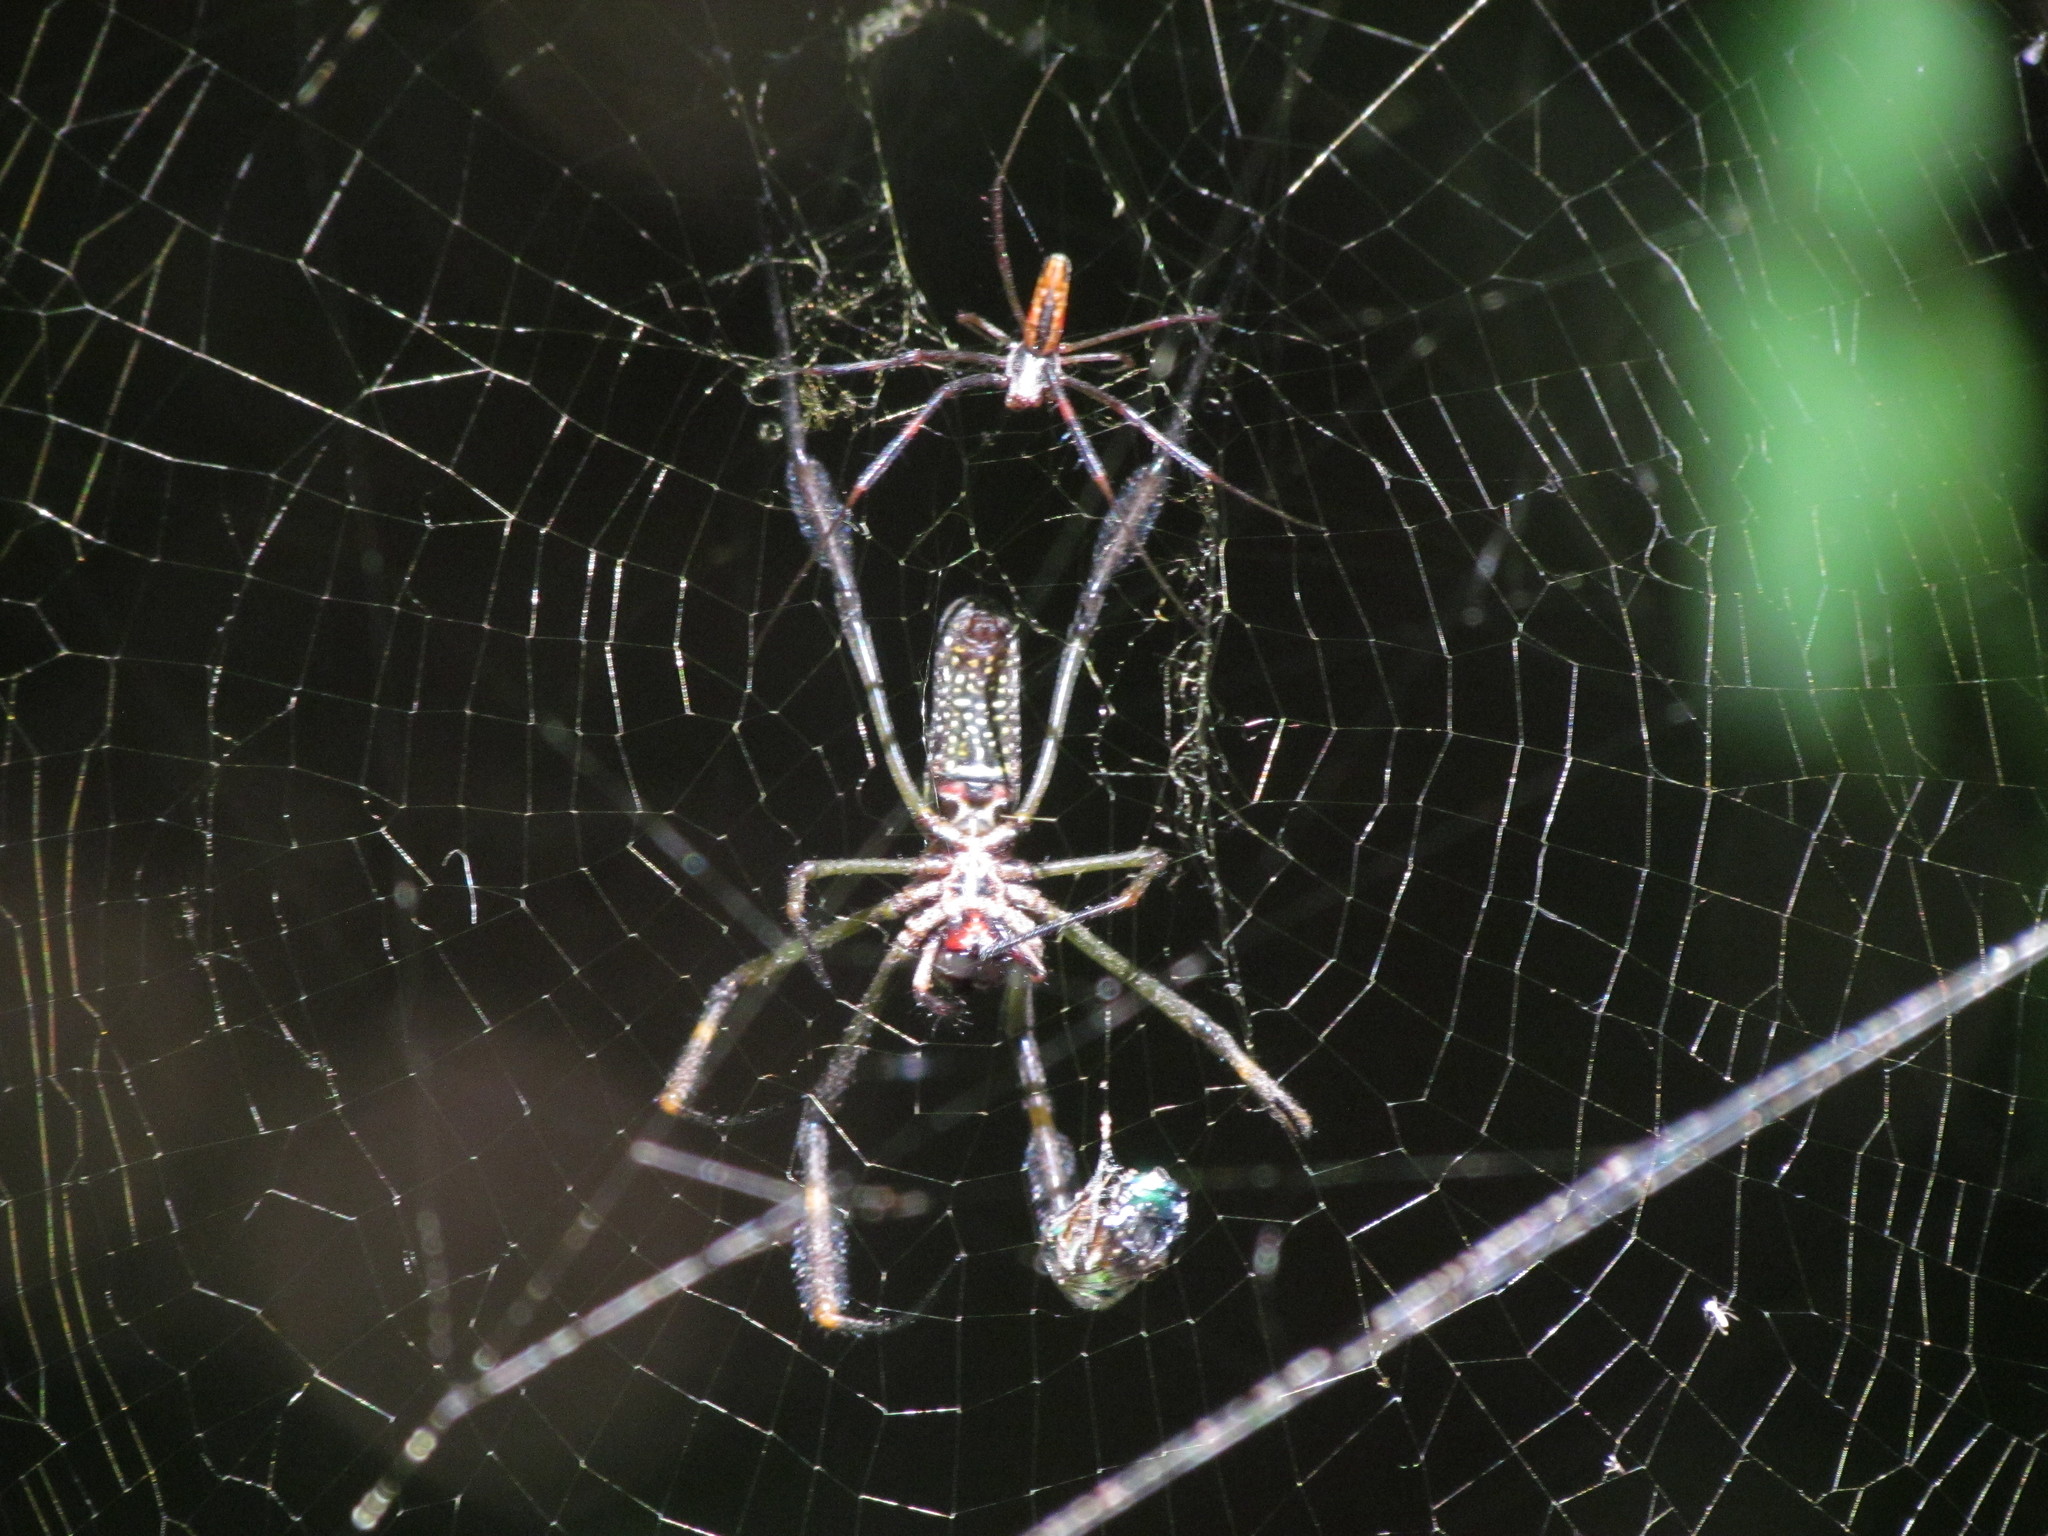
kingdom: Animalia
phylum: Arthropoda
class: Arachnida
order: Araneae
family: Araneidae
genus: Trichonephila
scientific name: Trichonephila clavipes
